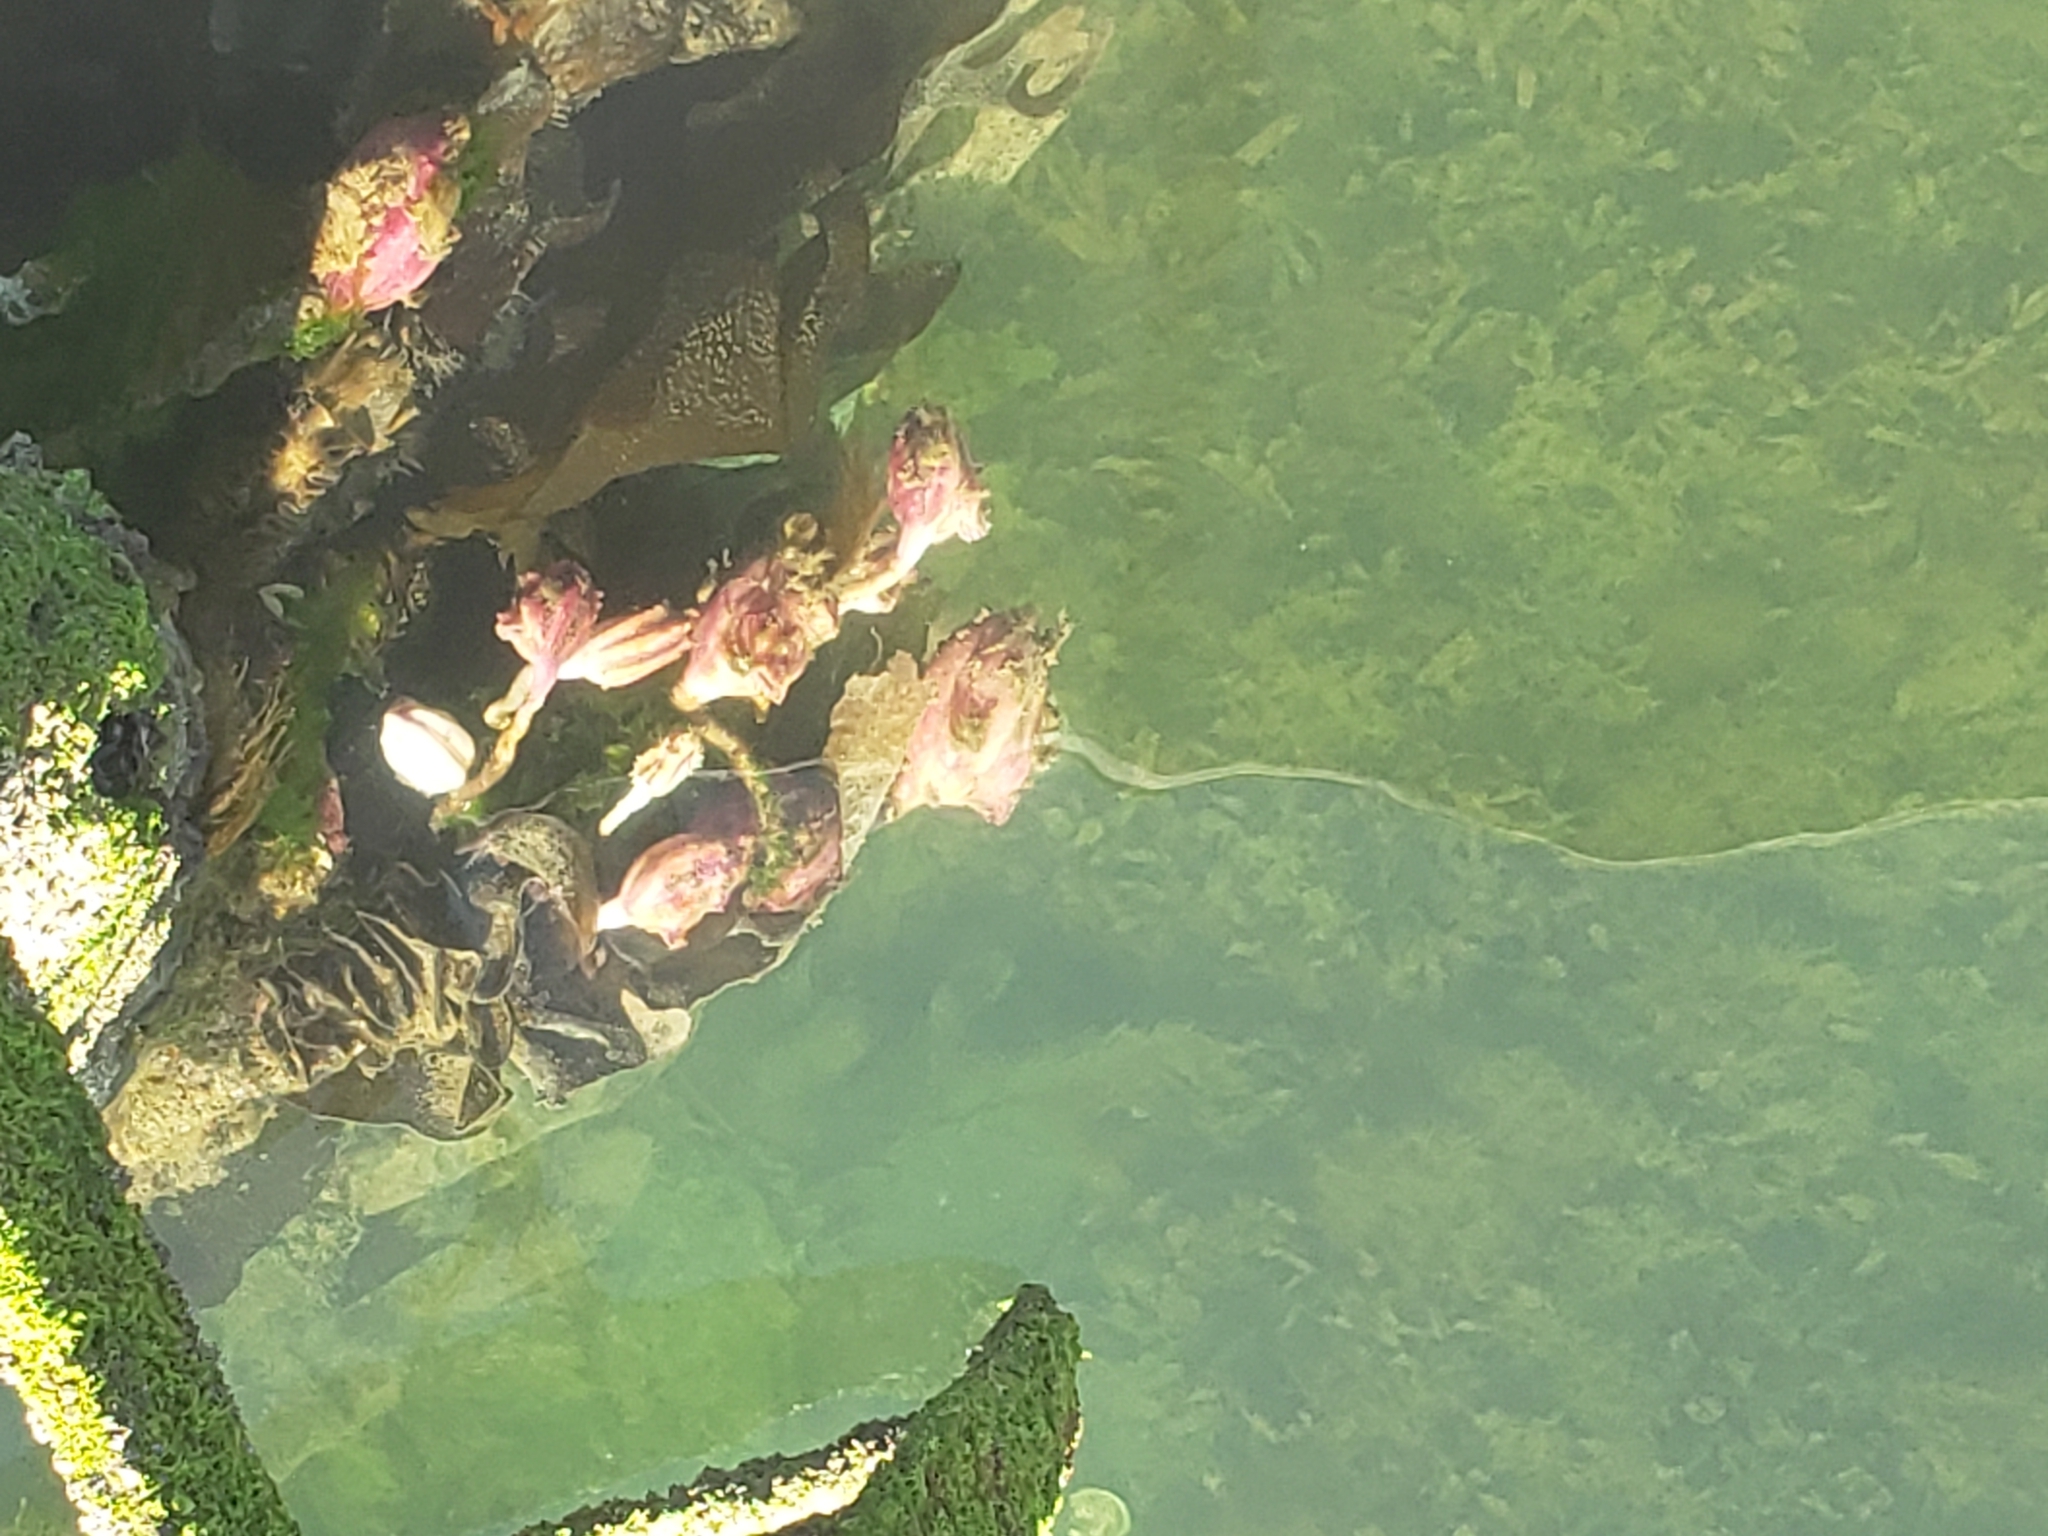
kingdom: Animalia
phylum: Chordata
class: Ascidiacea
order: Stolidobranchia
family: Pyuridae
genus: Pyura
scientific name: Pyura pachydermatina
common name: Sea tulip
